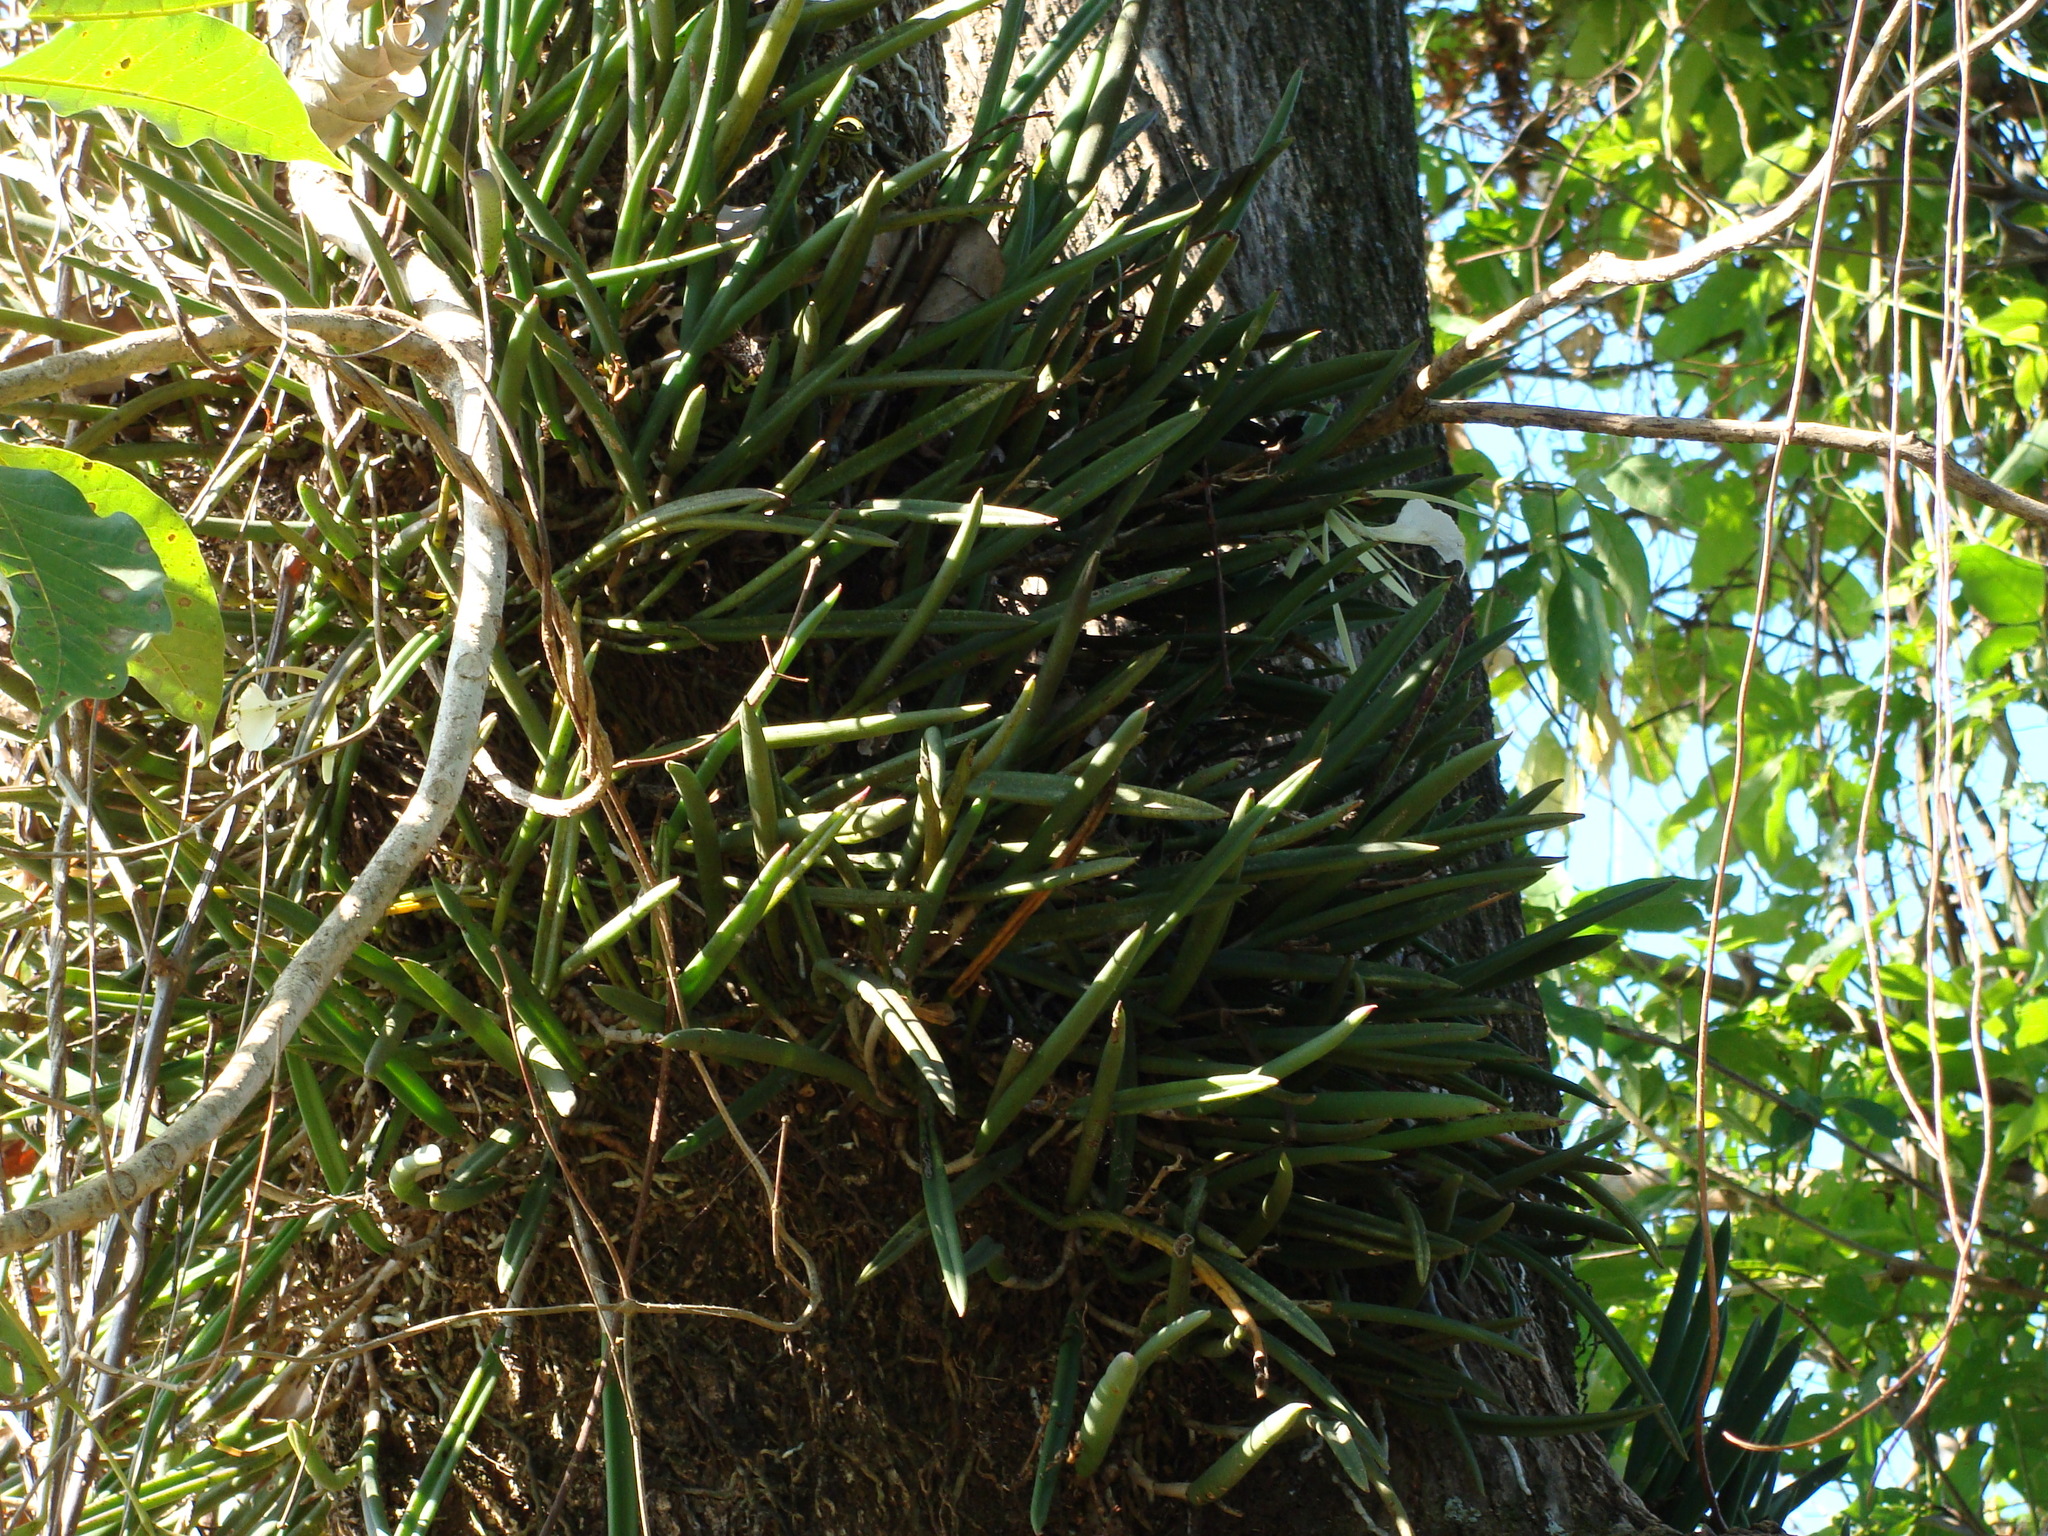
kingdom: Plantae
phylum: Tracheophyta
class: Liliopsida
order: Asparagales
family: Orchidaceae
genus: Brassavola
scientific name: Brassavola nodosa
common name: Lady of the night
